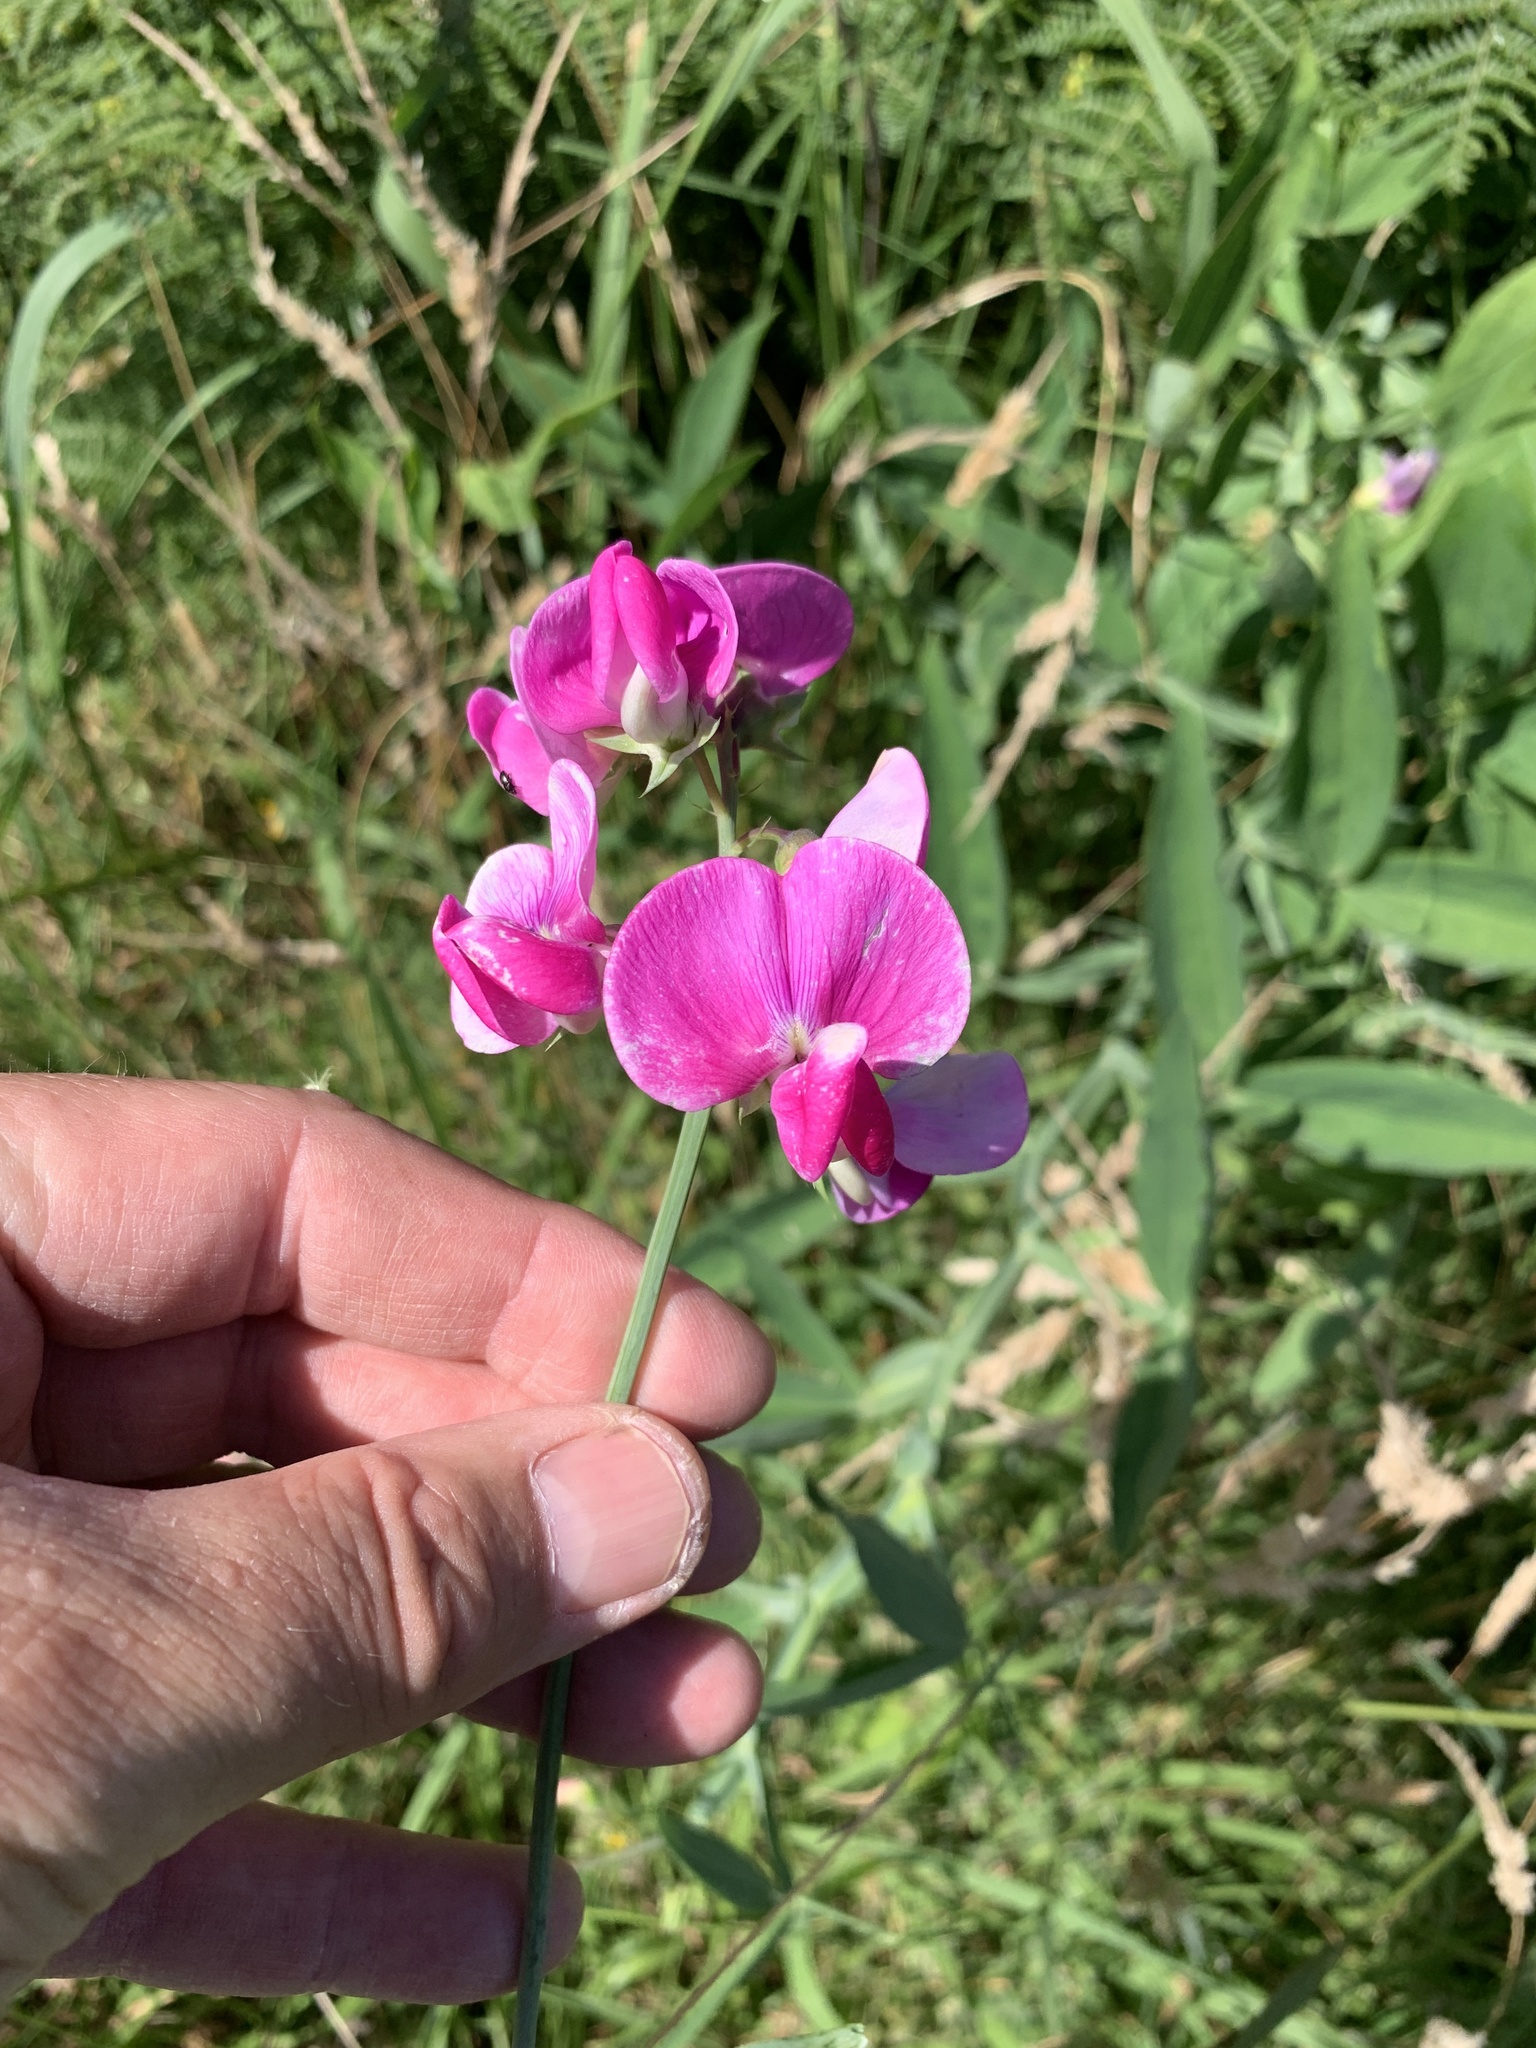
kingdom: Plantae
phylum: Tracheophyta
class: Magnoliopsida
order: Fabales
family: Fabaceae
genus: Lathyrus
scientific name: Lathyrus latifolius
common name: Perennial pea
